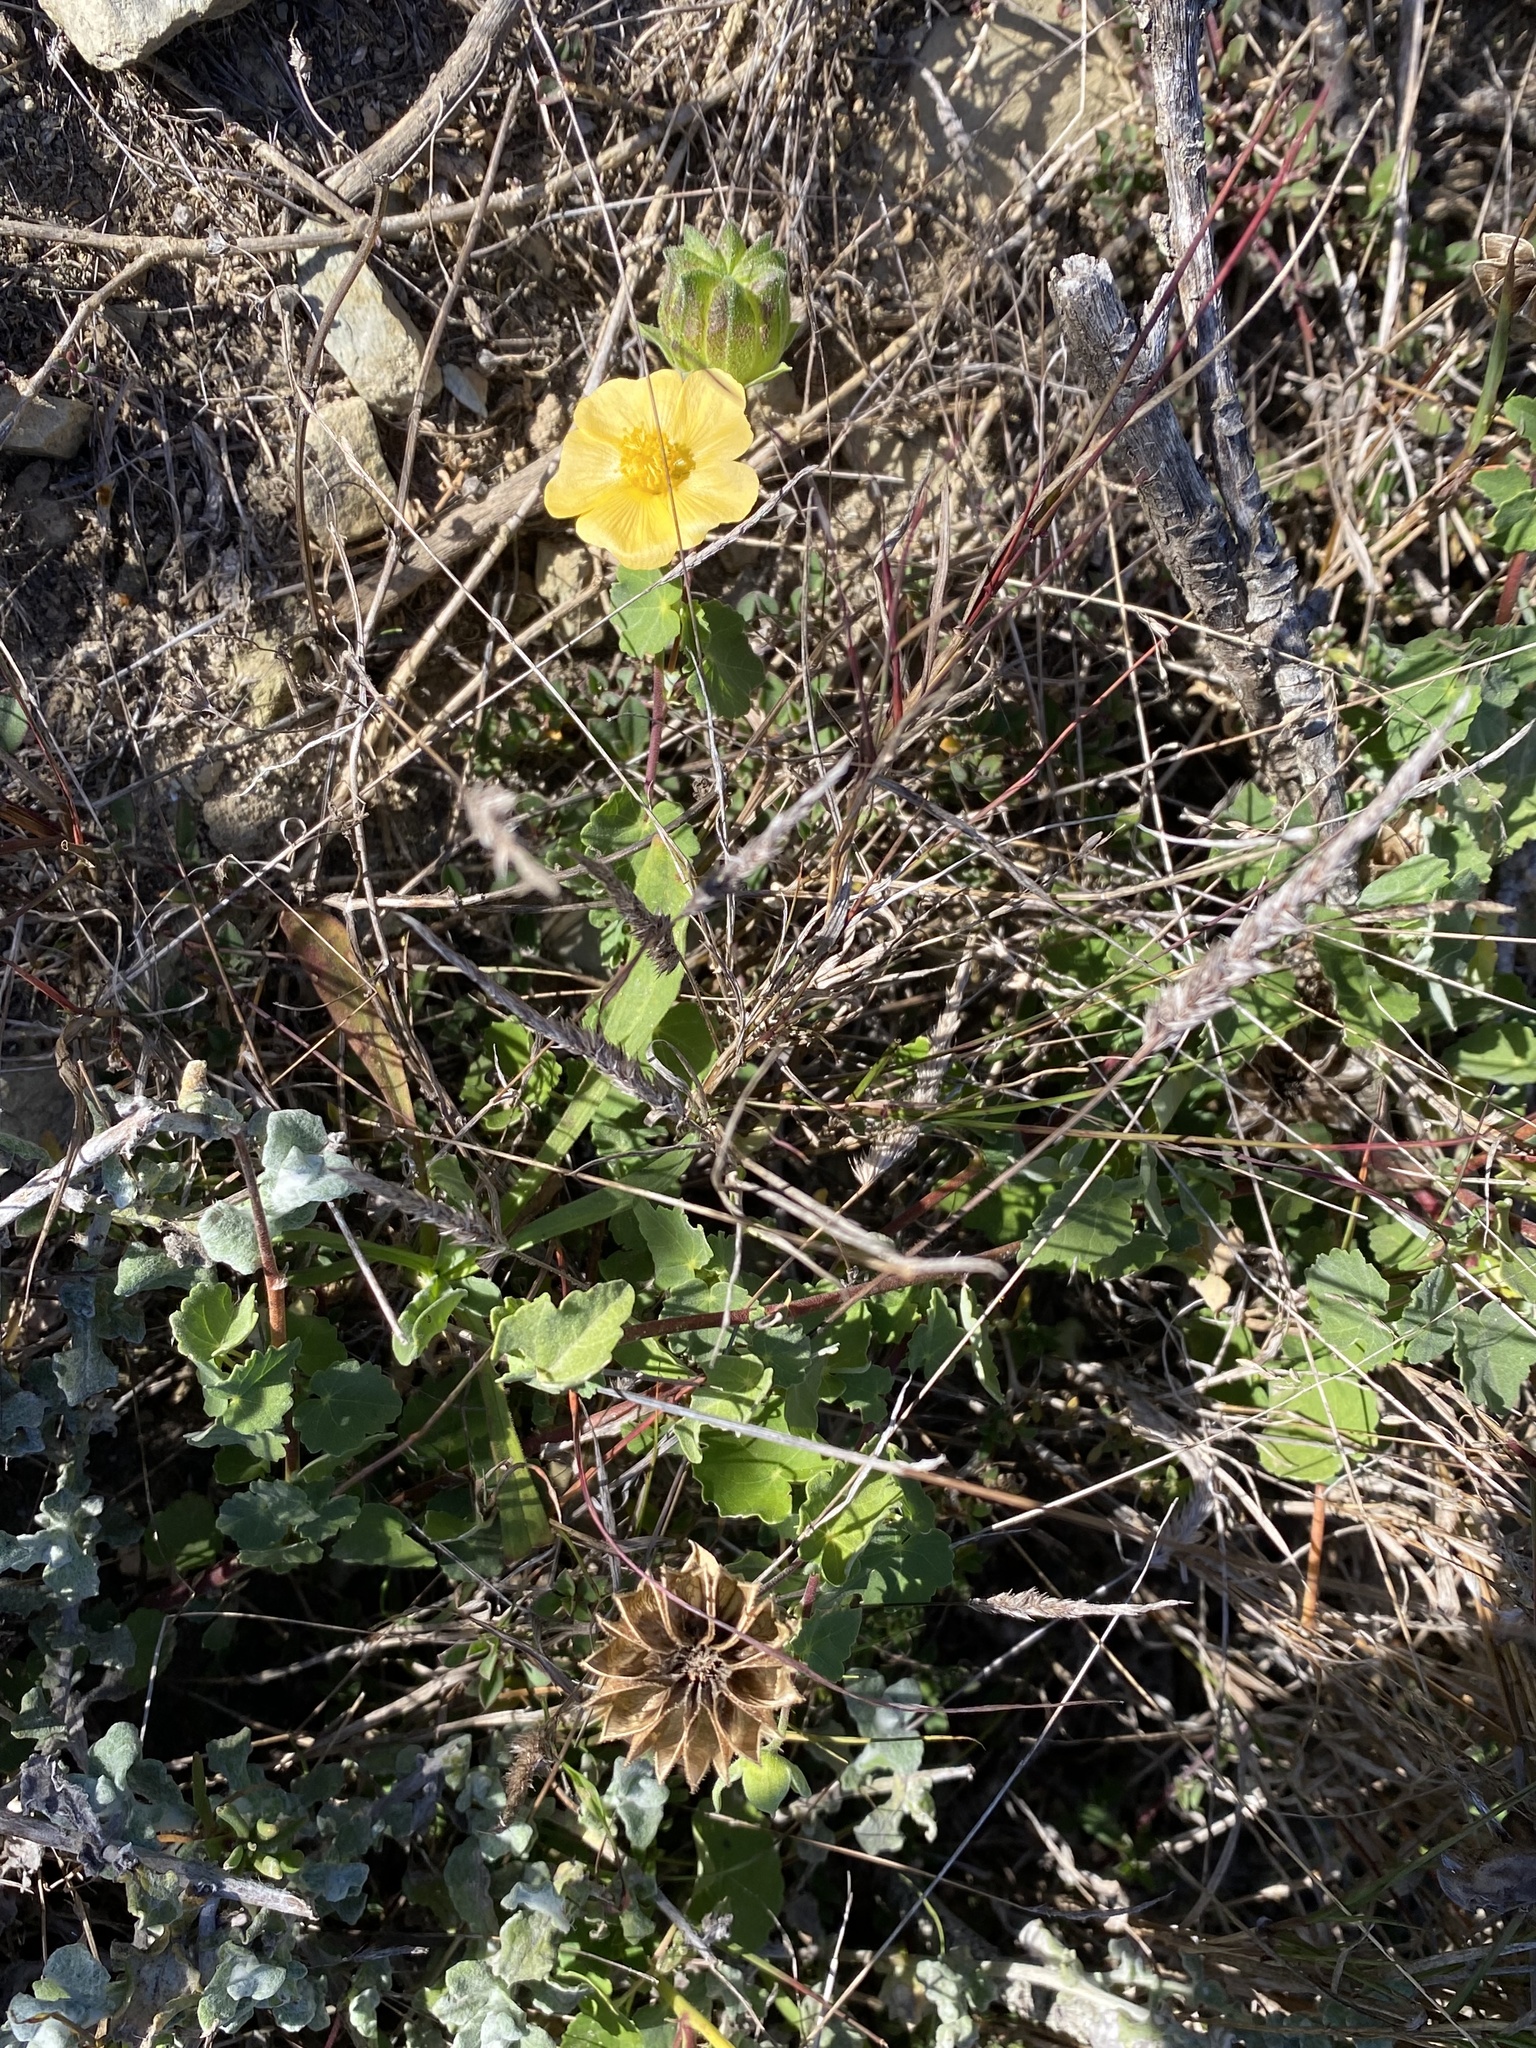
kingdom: Plantae
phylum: Tracheophyta
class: Magnoliopsida
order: Malvales
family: Malvaceae
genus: Abutilon
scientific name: Abutilon sonneratianum
